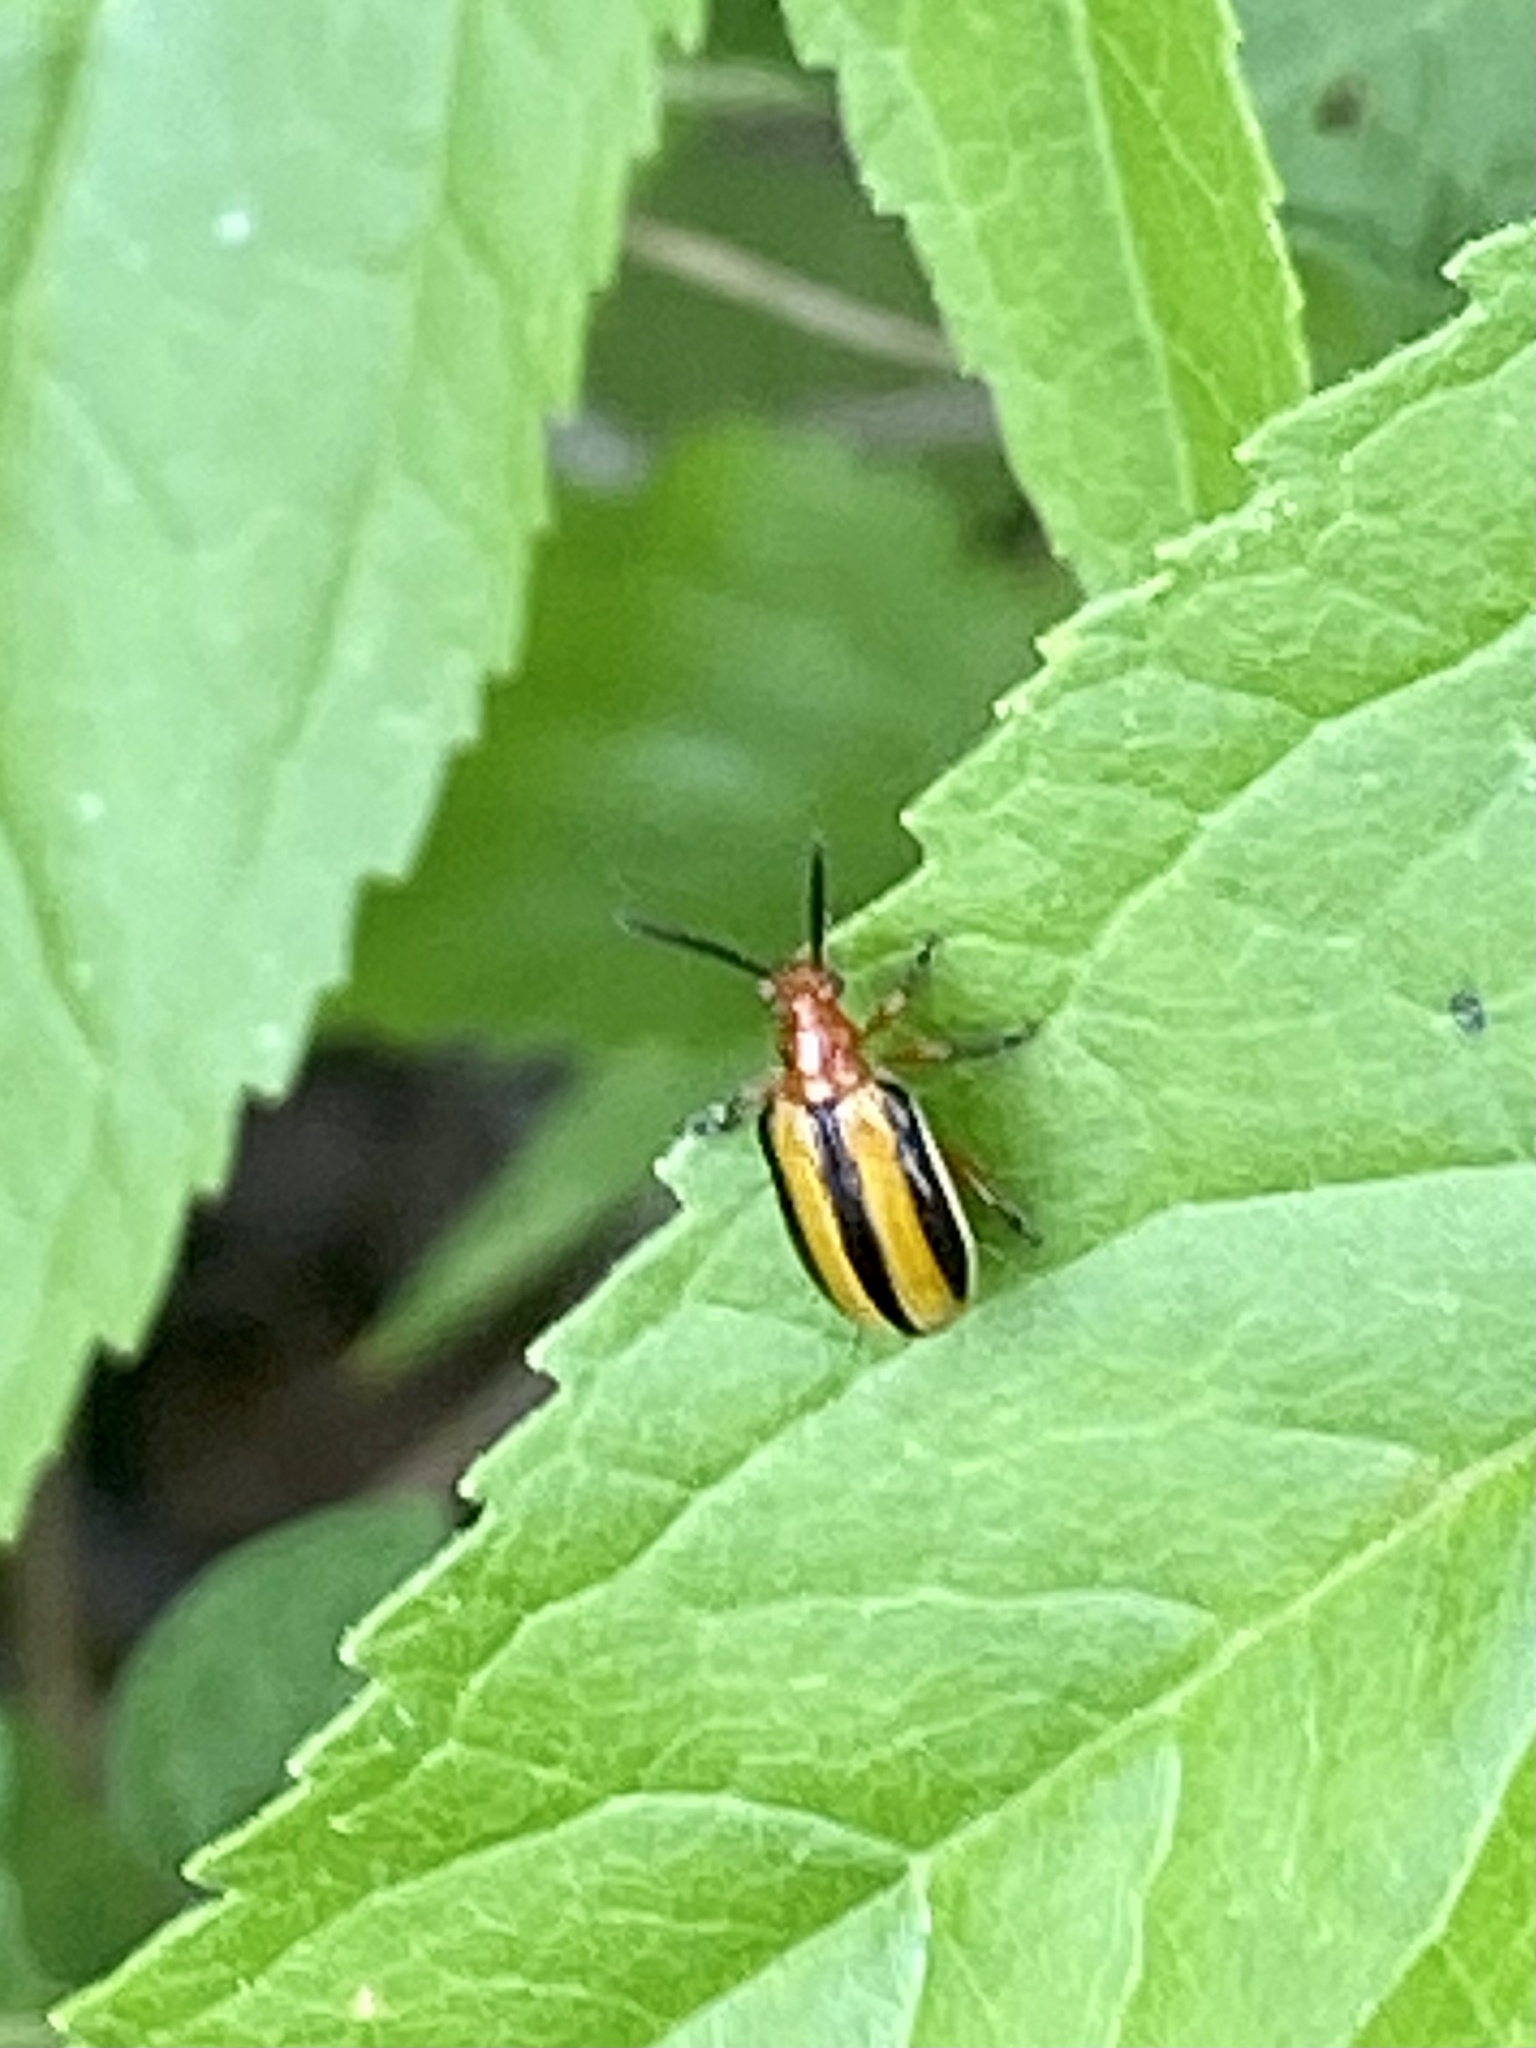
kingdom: Animalia
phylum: Arthropoda
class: Insecta
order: Coleoptera
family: Chrysomelidae
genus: Lema
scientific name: Lema daturaphila
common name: Leaf beetle
